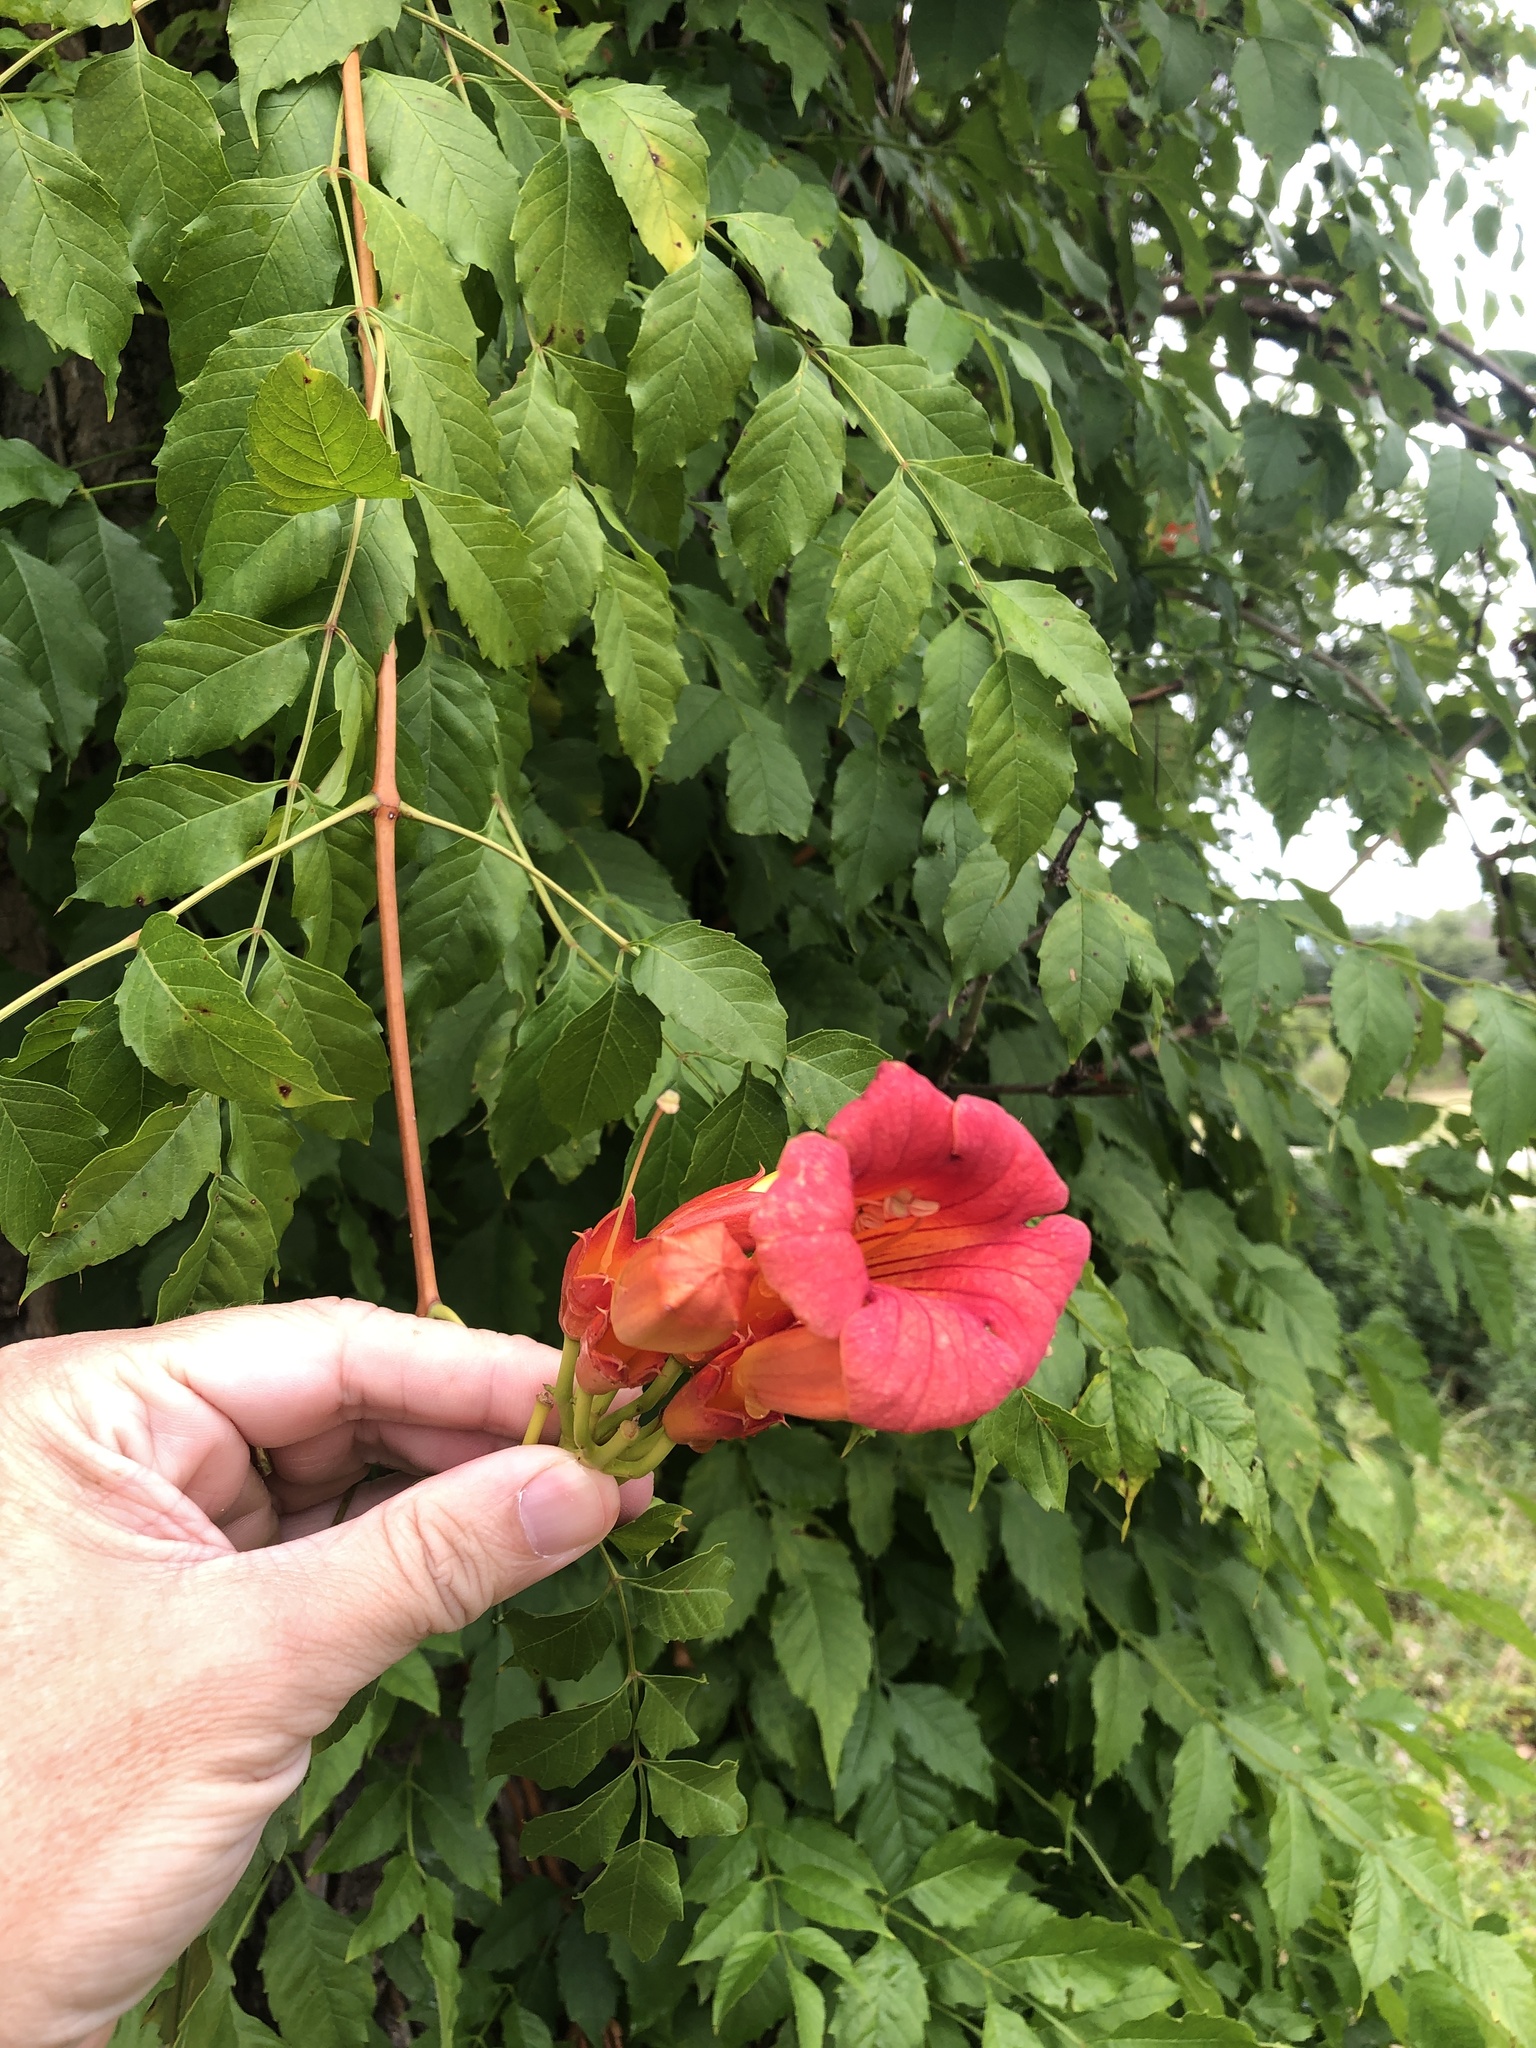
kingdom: Plantae
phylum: Tracheophyta
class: Magnoliopsida
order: Lamiales
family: Bignoniaceae
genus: Campsis
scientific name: Campsis radicans
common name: Trumpet-creeper
